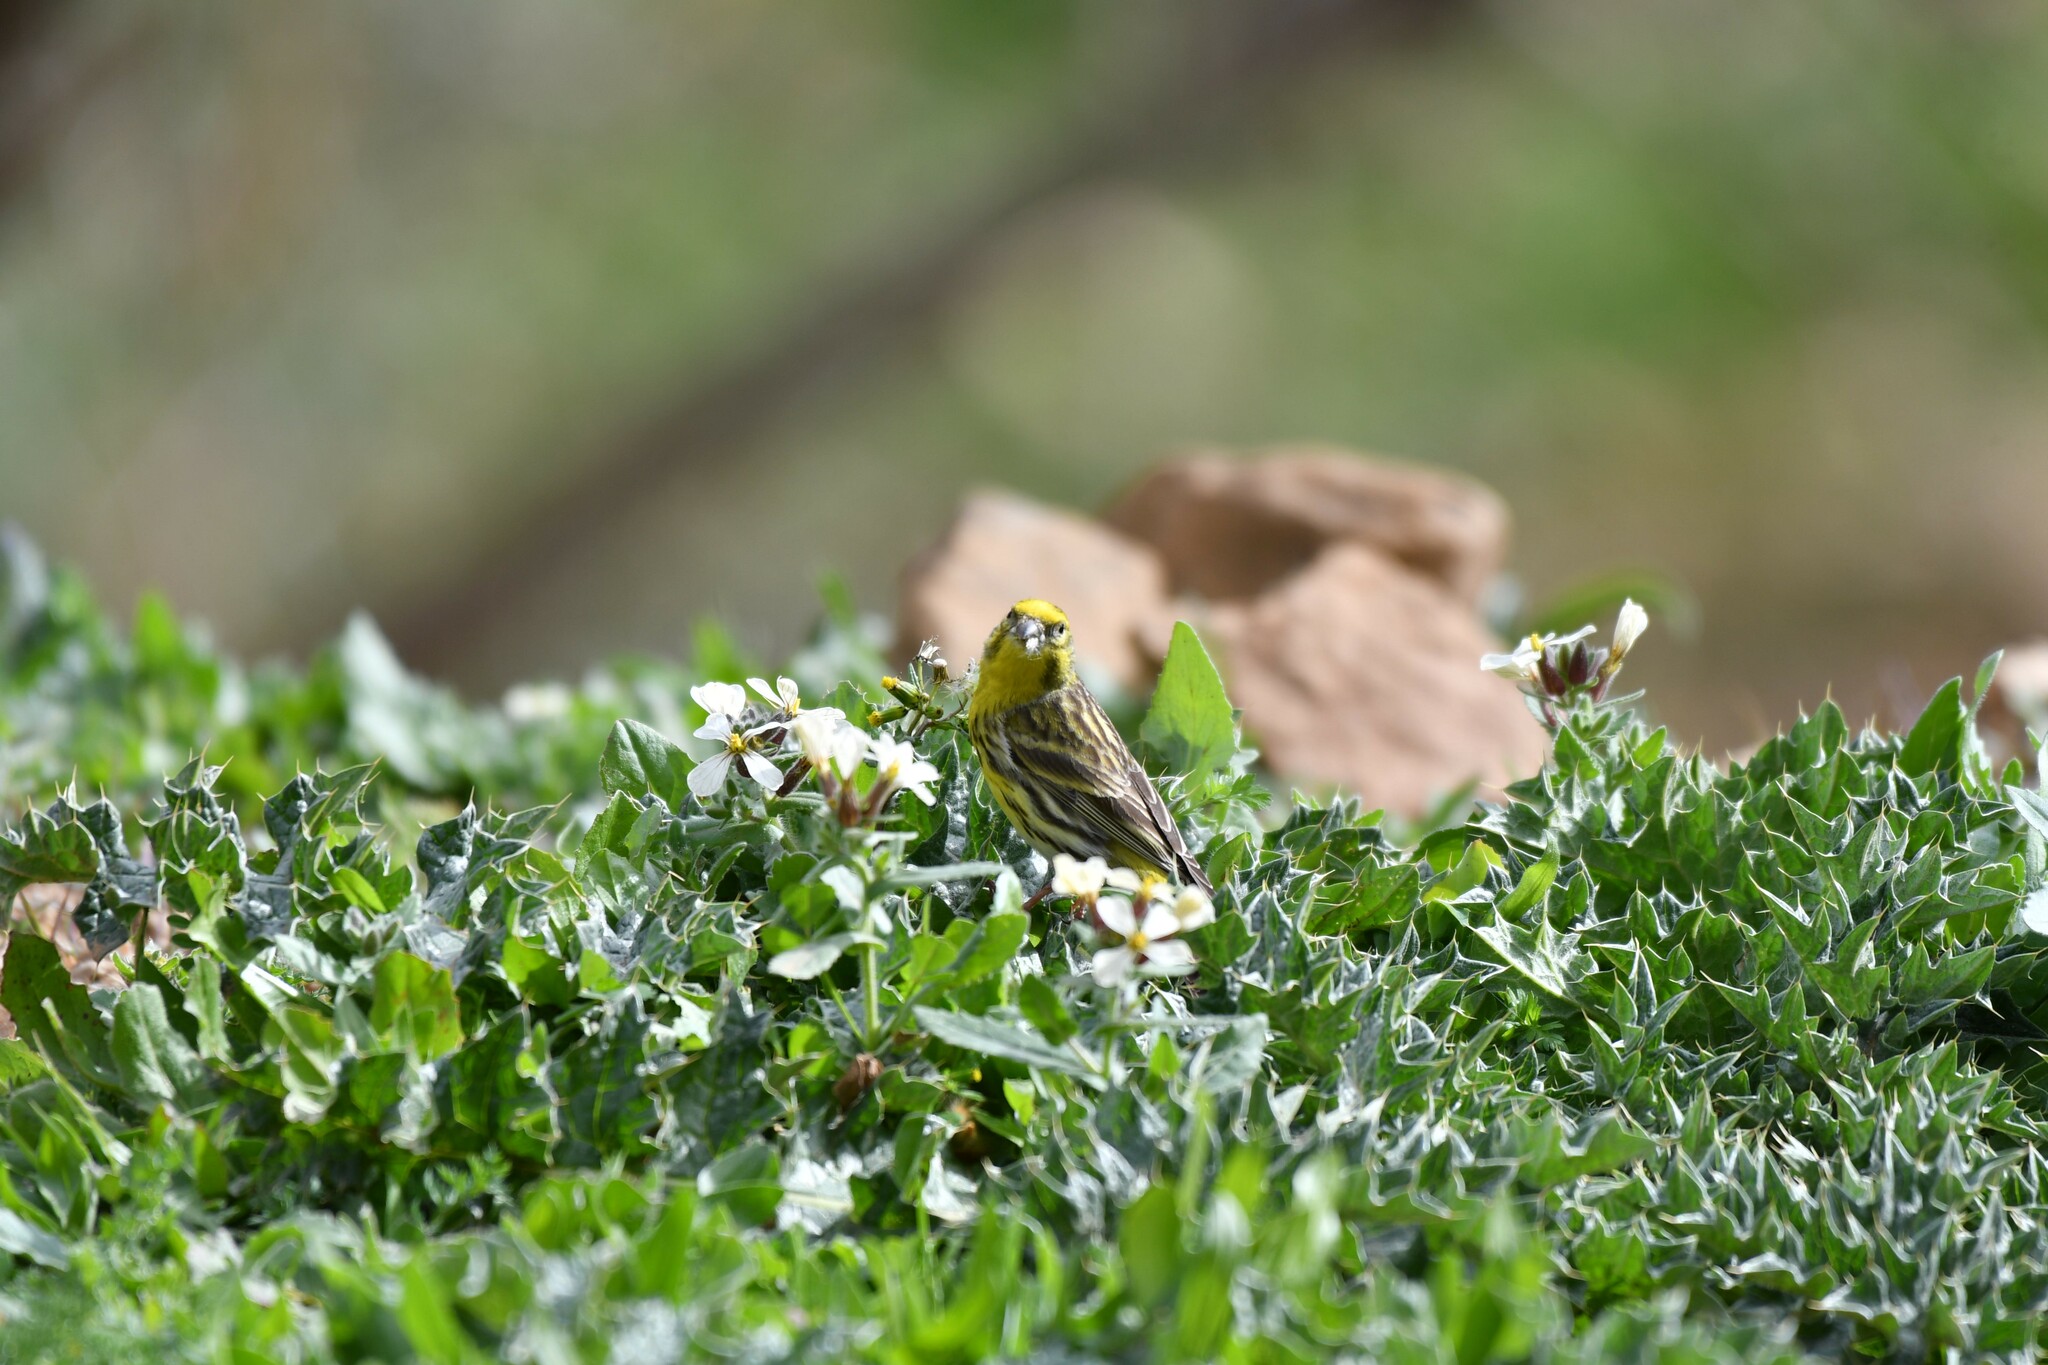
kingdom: Animalia
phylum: Chordata
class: Aves
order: Passeriformes
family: Fringillidae
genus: Serinus
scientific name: Serinus serinus
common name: European serin
